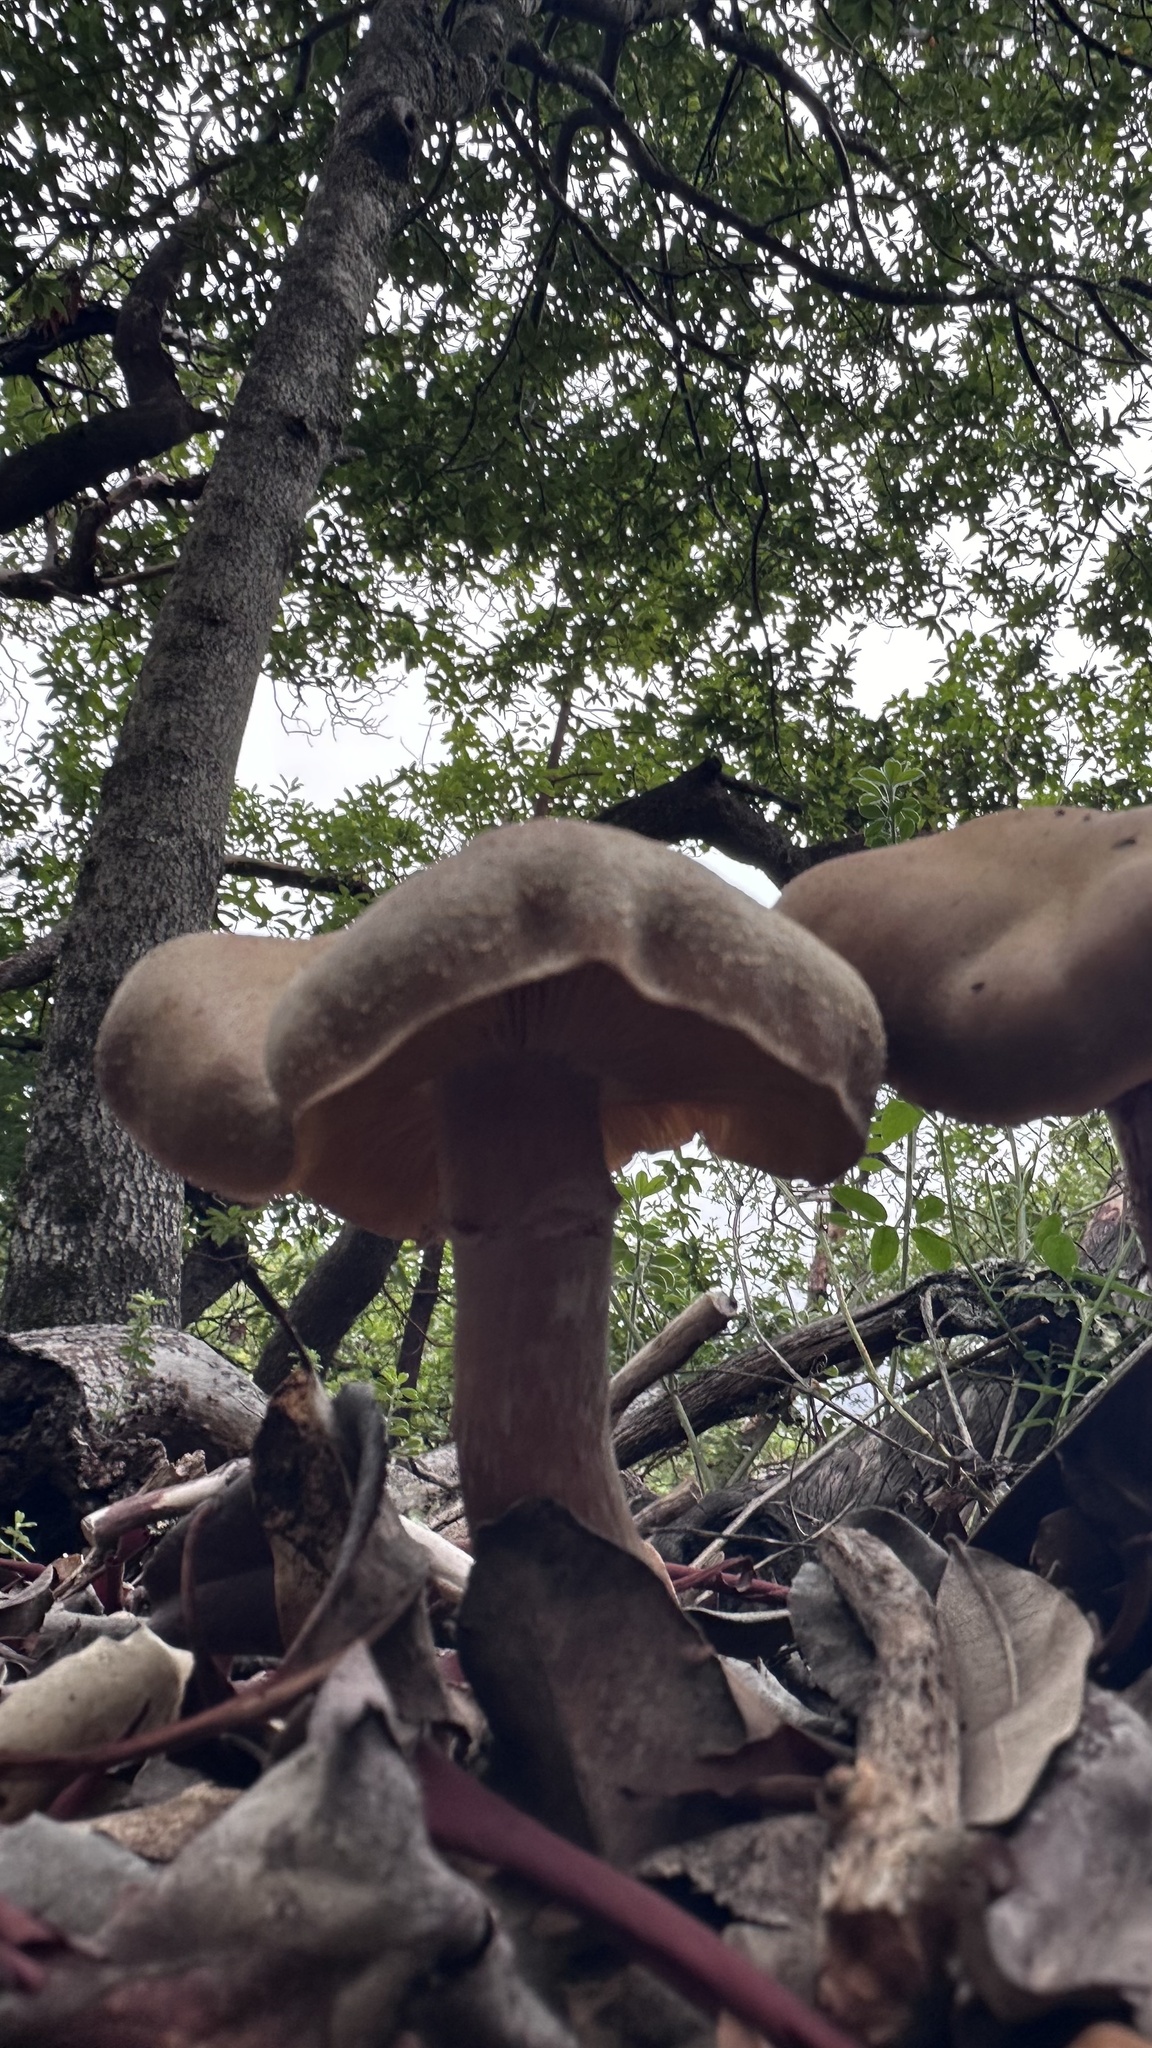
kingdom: Fungi
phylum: Basidiomycota
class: Agaricomycetes
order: Agaricales
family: Physalacriaceae
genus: Armillaria
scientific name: Armillaria mellea
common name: Honey fungus
